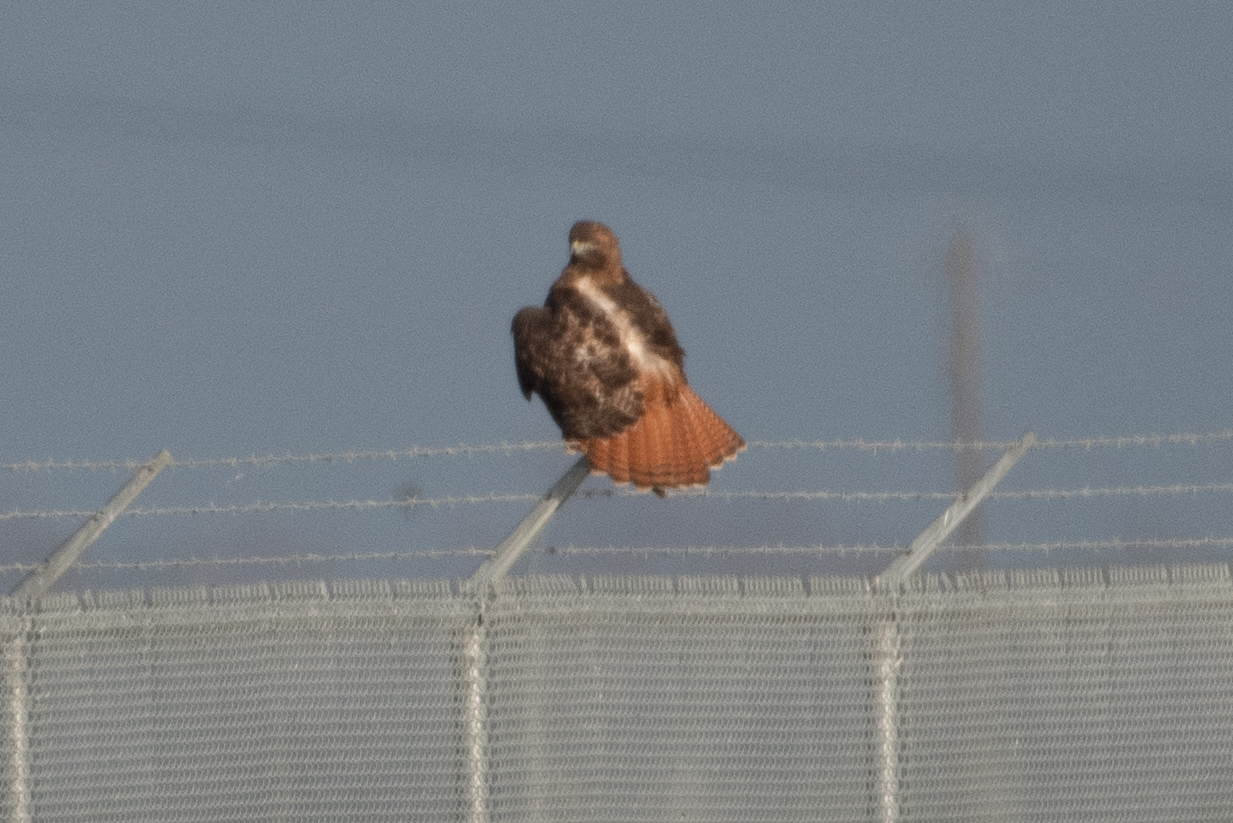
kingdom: Animalia
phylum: Chordata
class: Aves
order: Accipitriformes
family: Accipitridae
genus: Buteo
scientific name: Buteo jamaicensis
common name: Red-tailed hawk
